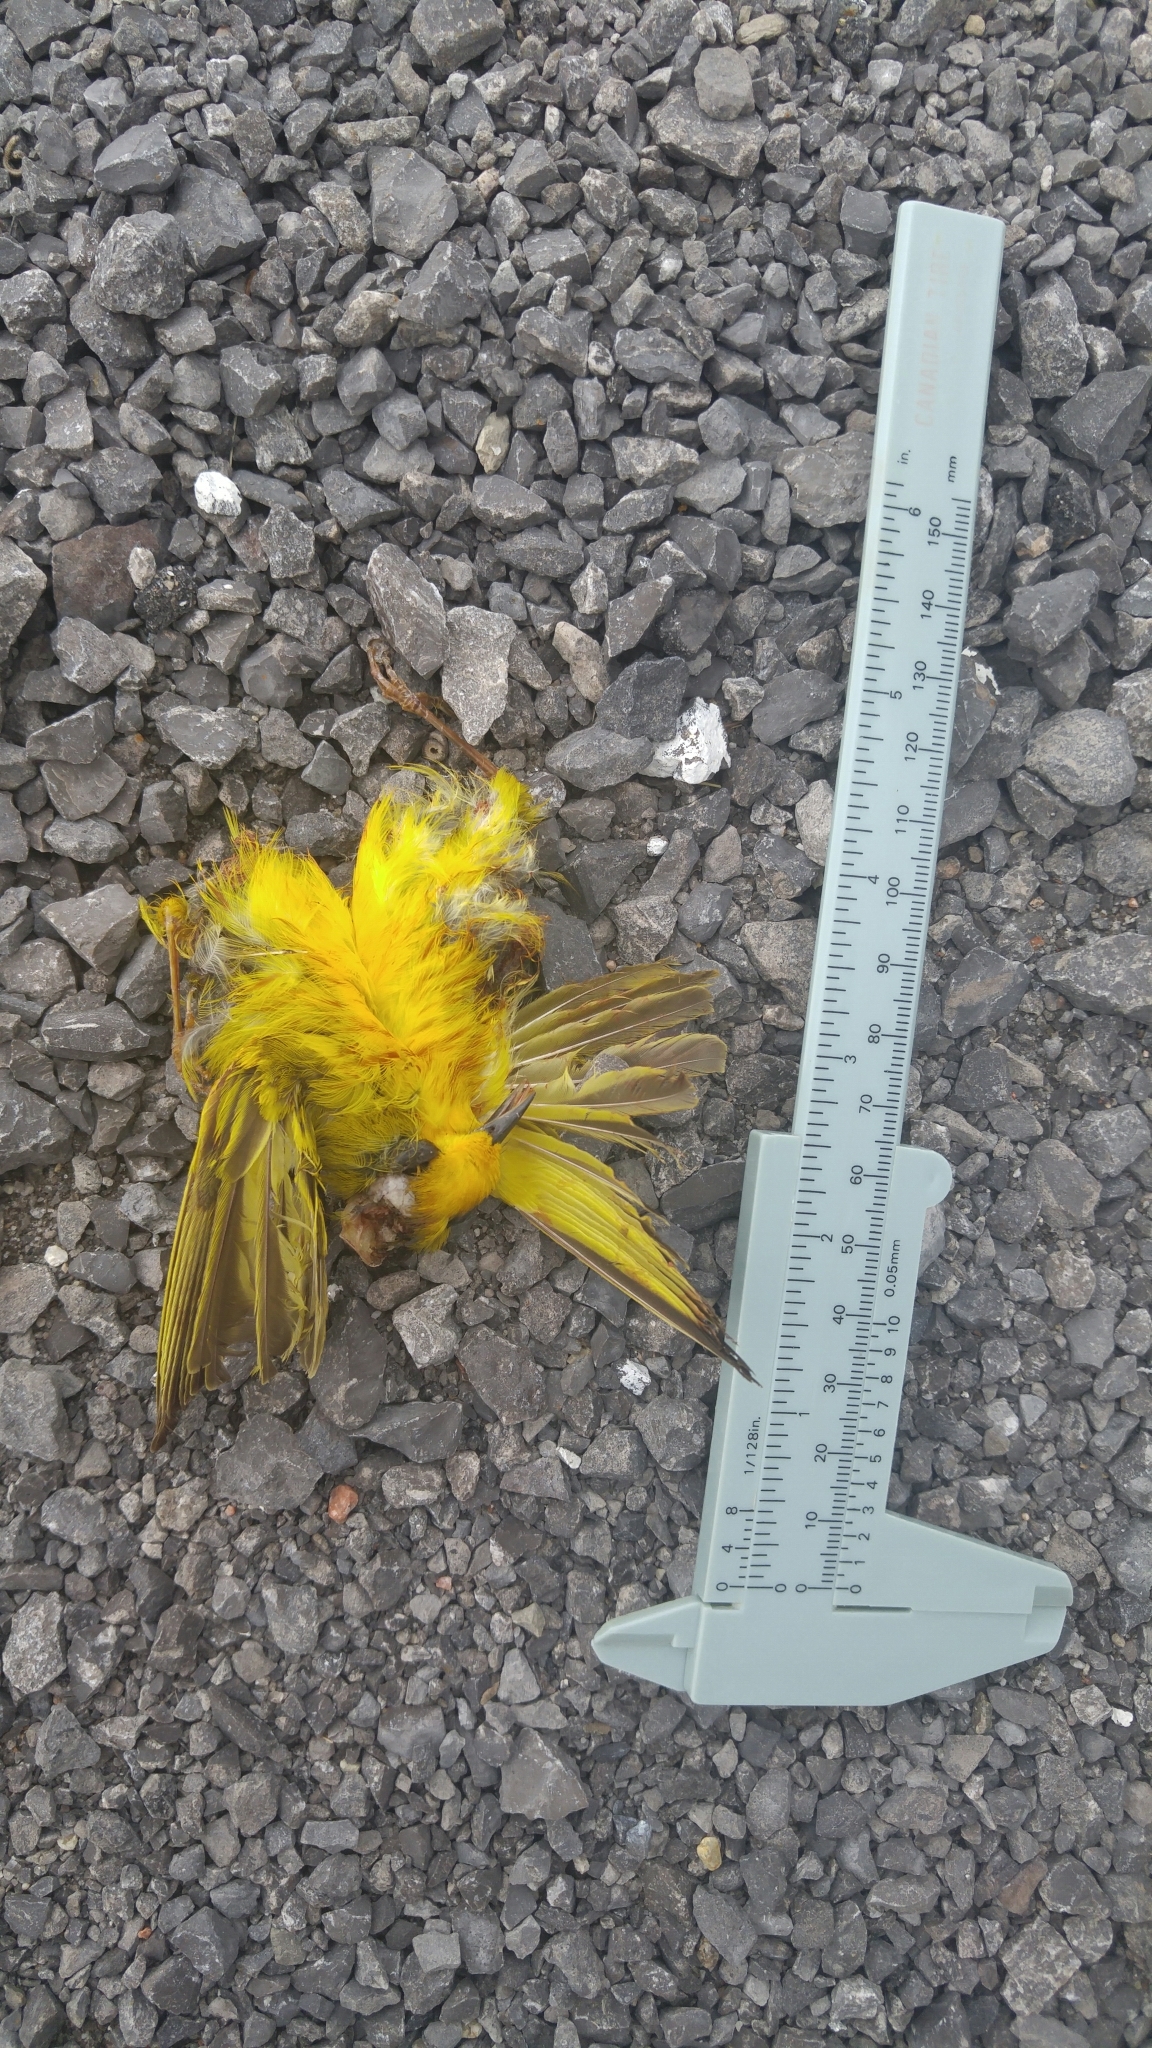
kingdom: Animalia
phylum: Chordata
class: Aves
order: Passeriformes
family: Parulidae
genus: Setophaga
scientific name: Setophaga petechia
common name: Yellow warbler
